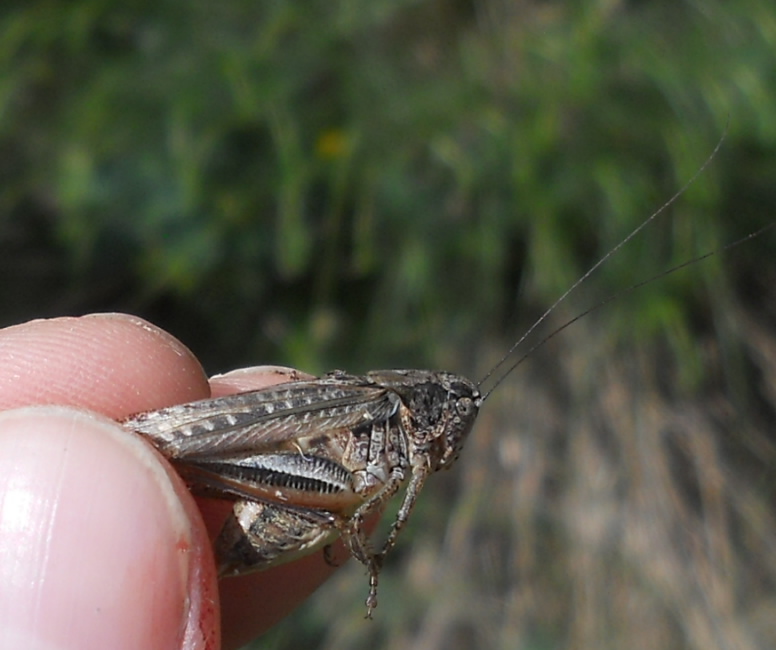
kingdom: Animalia
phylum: Arthropoda
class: Insecta
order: Orthoptera
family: Tettigoniidae
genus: Platycleis
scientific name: Platycleis grisea
